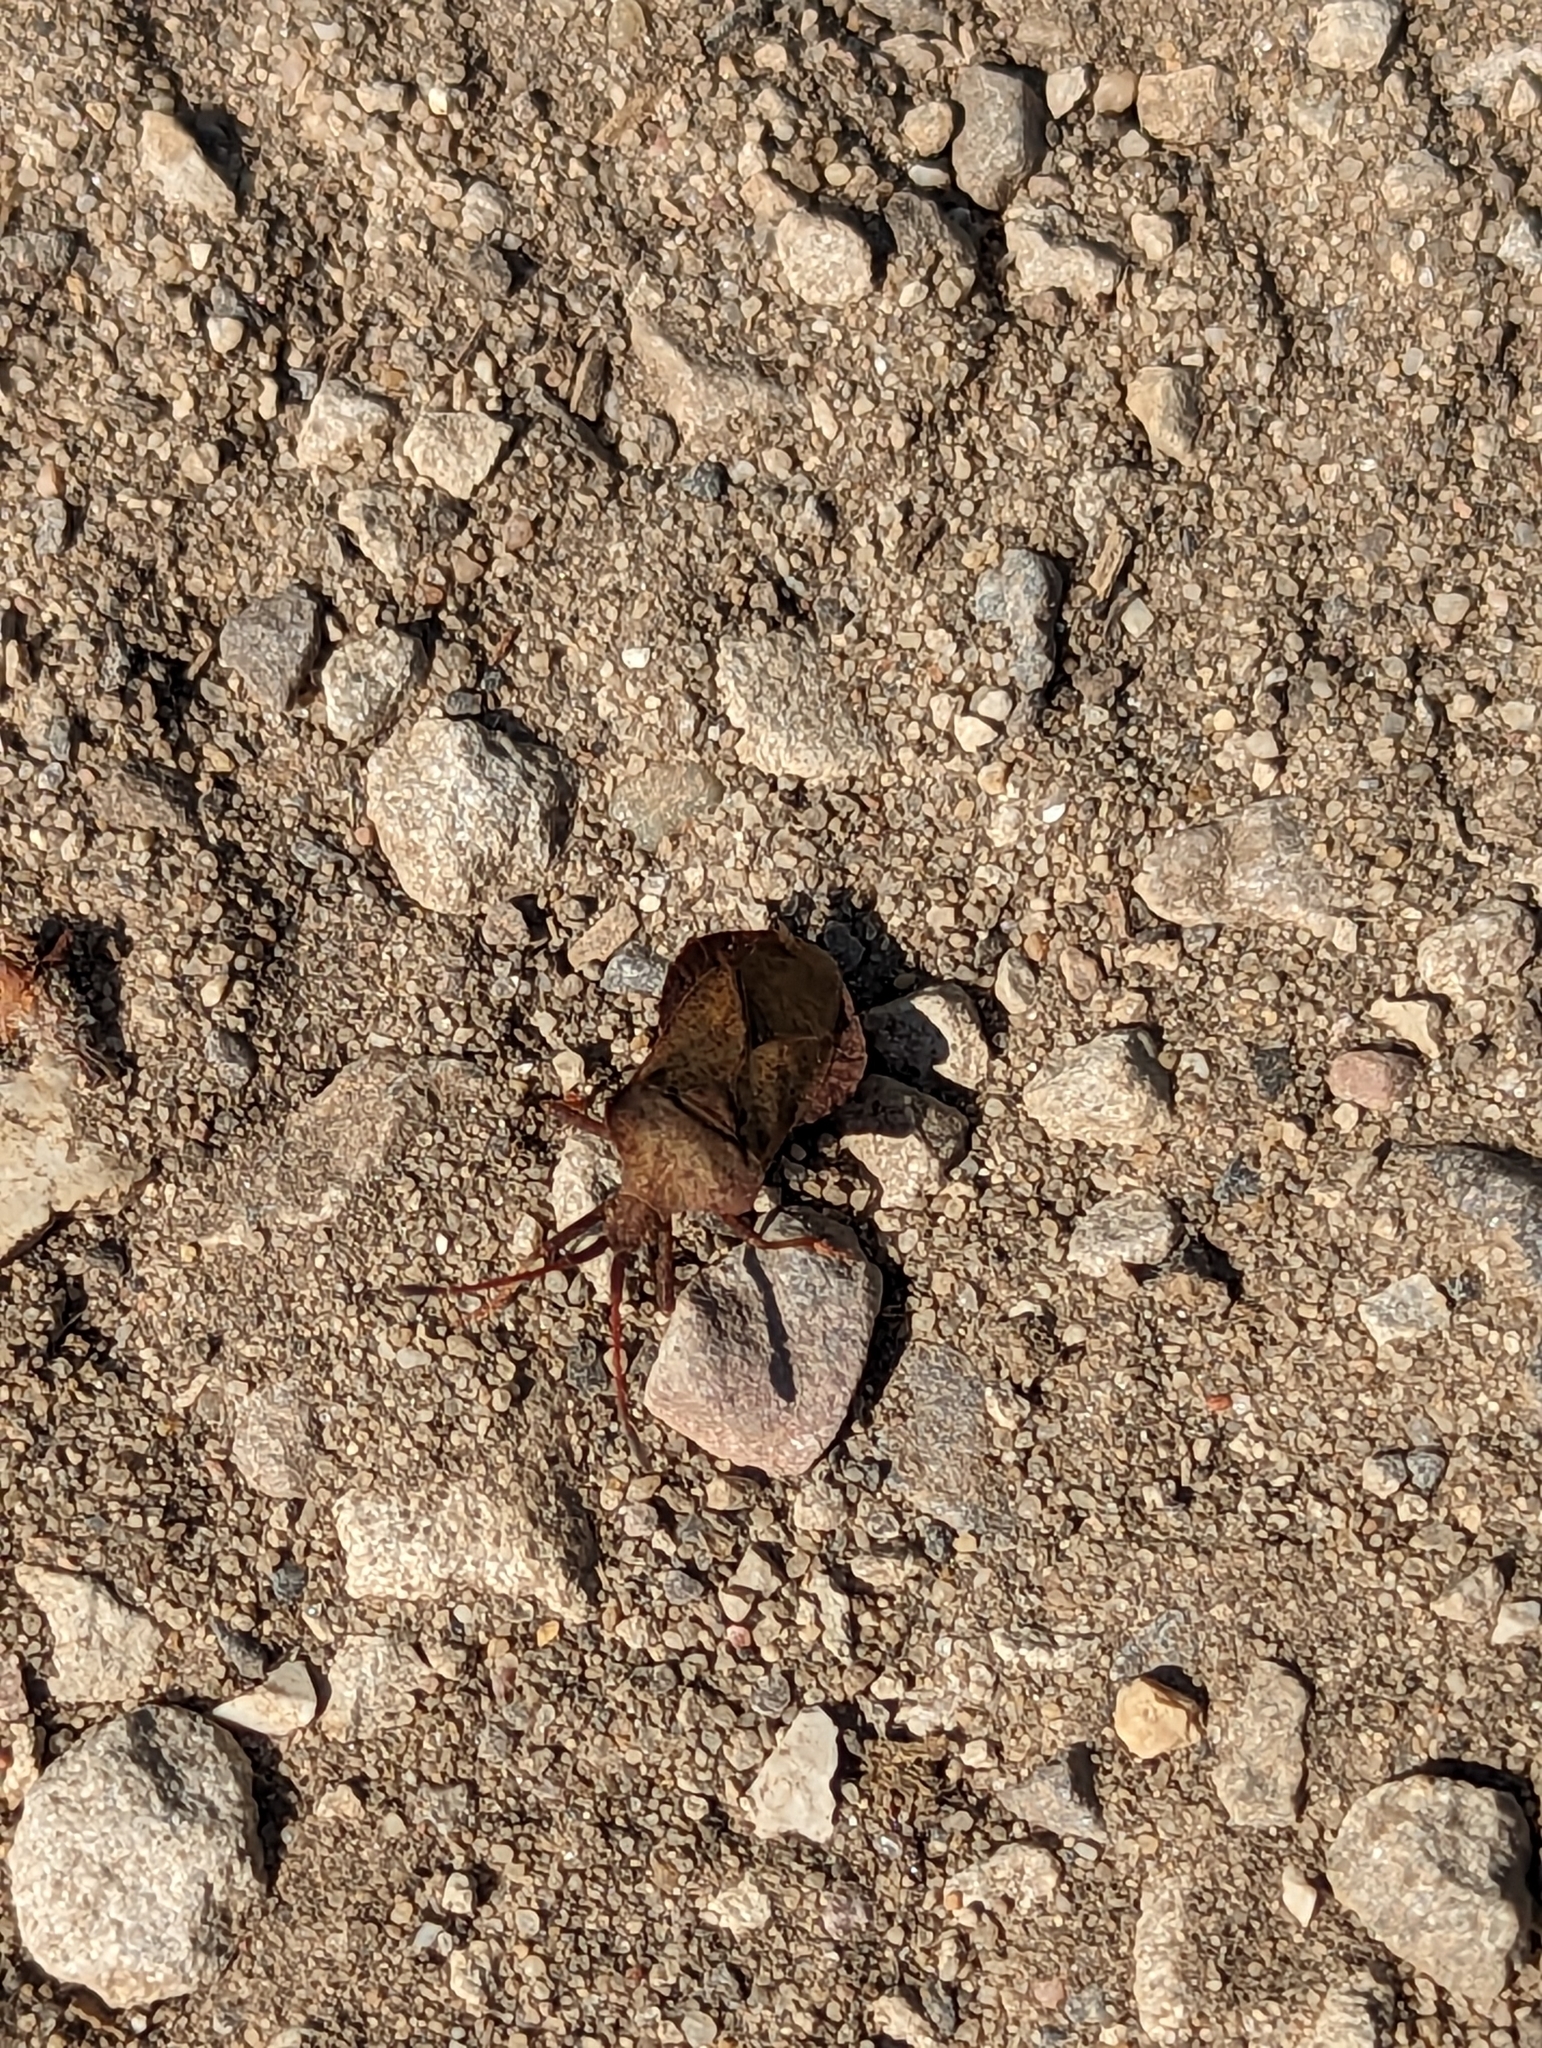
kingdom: Animalia
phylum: Arthropoda
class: Insecta
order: Hemiptera
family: Coreidae
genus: Coreus
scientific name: Coreus marginatus
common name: Dock bug
